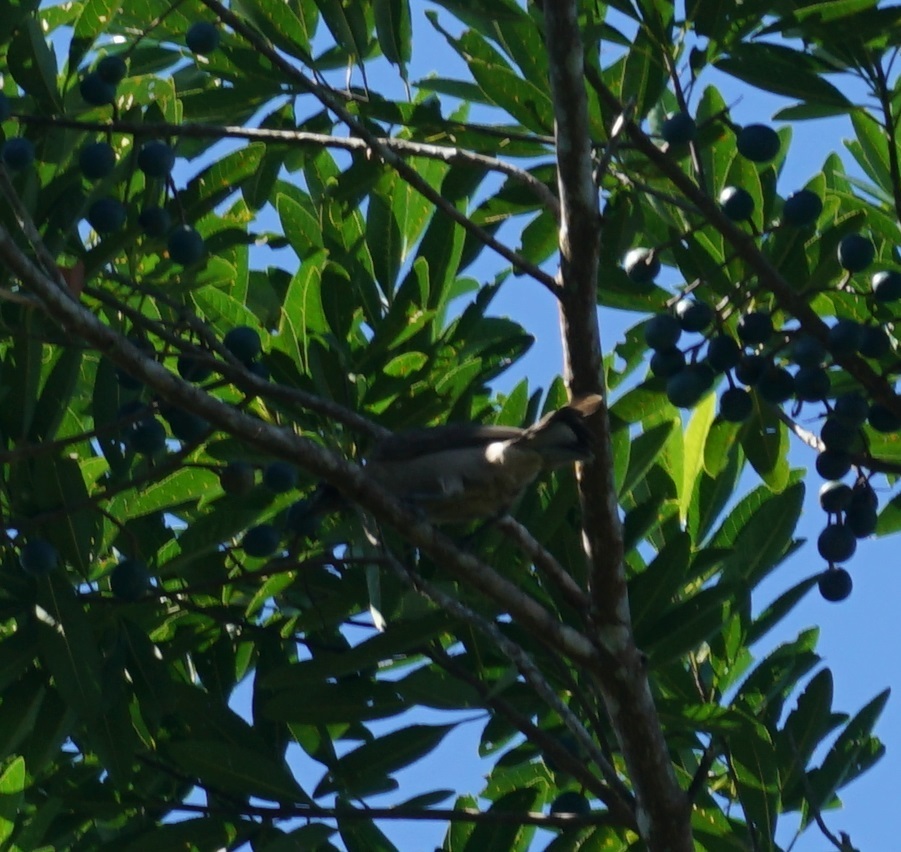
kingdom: Animalia
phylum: Chordata
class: Aves
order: Passeriformes
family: Meliphagidae
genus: Philemon
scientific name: Philemon citreogularis
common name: Little friarbird
